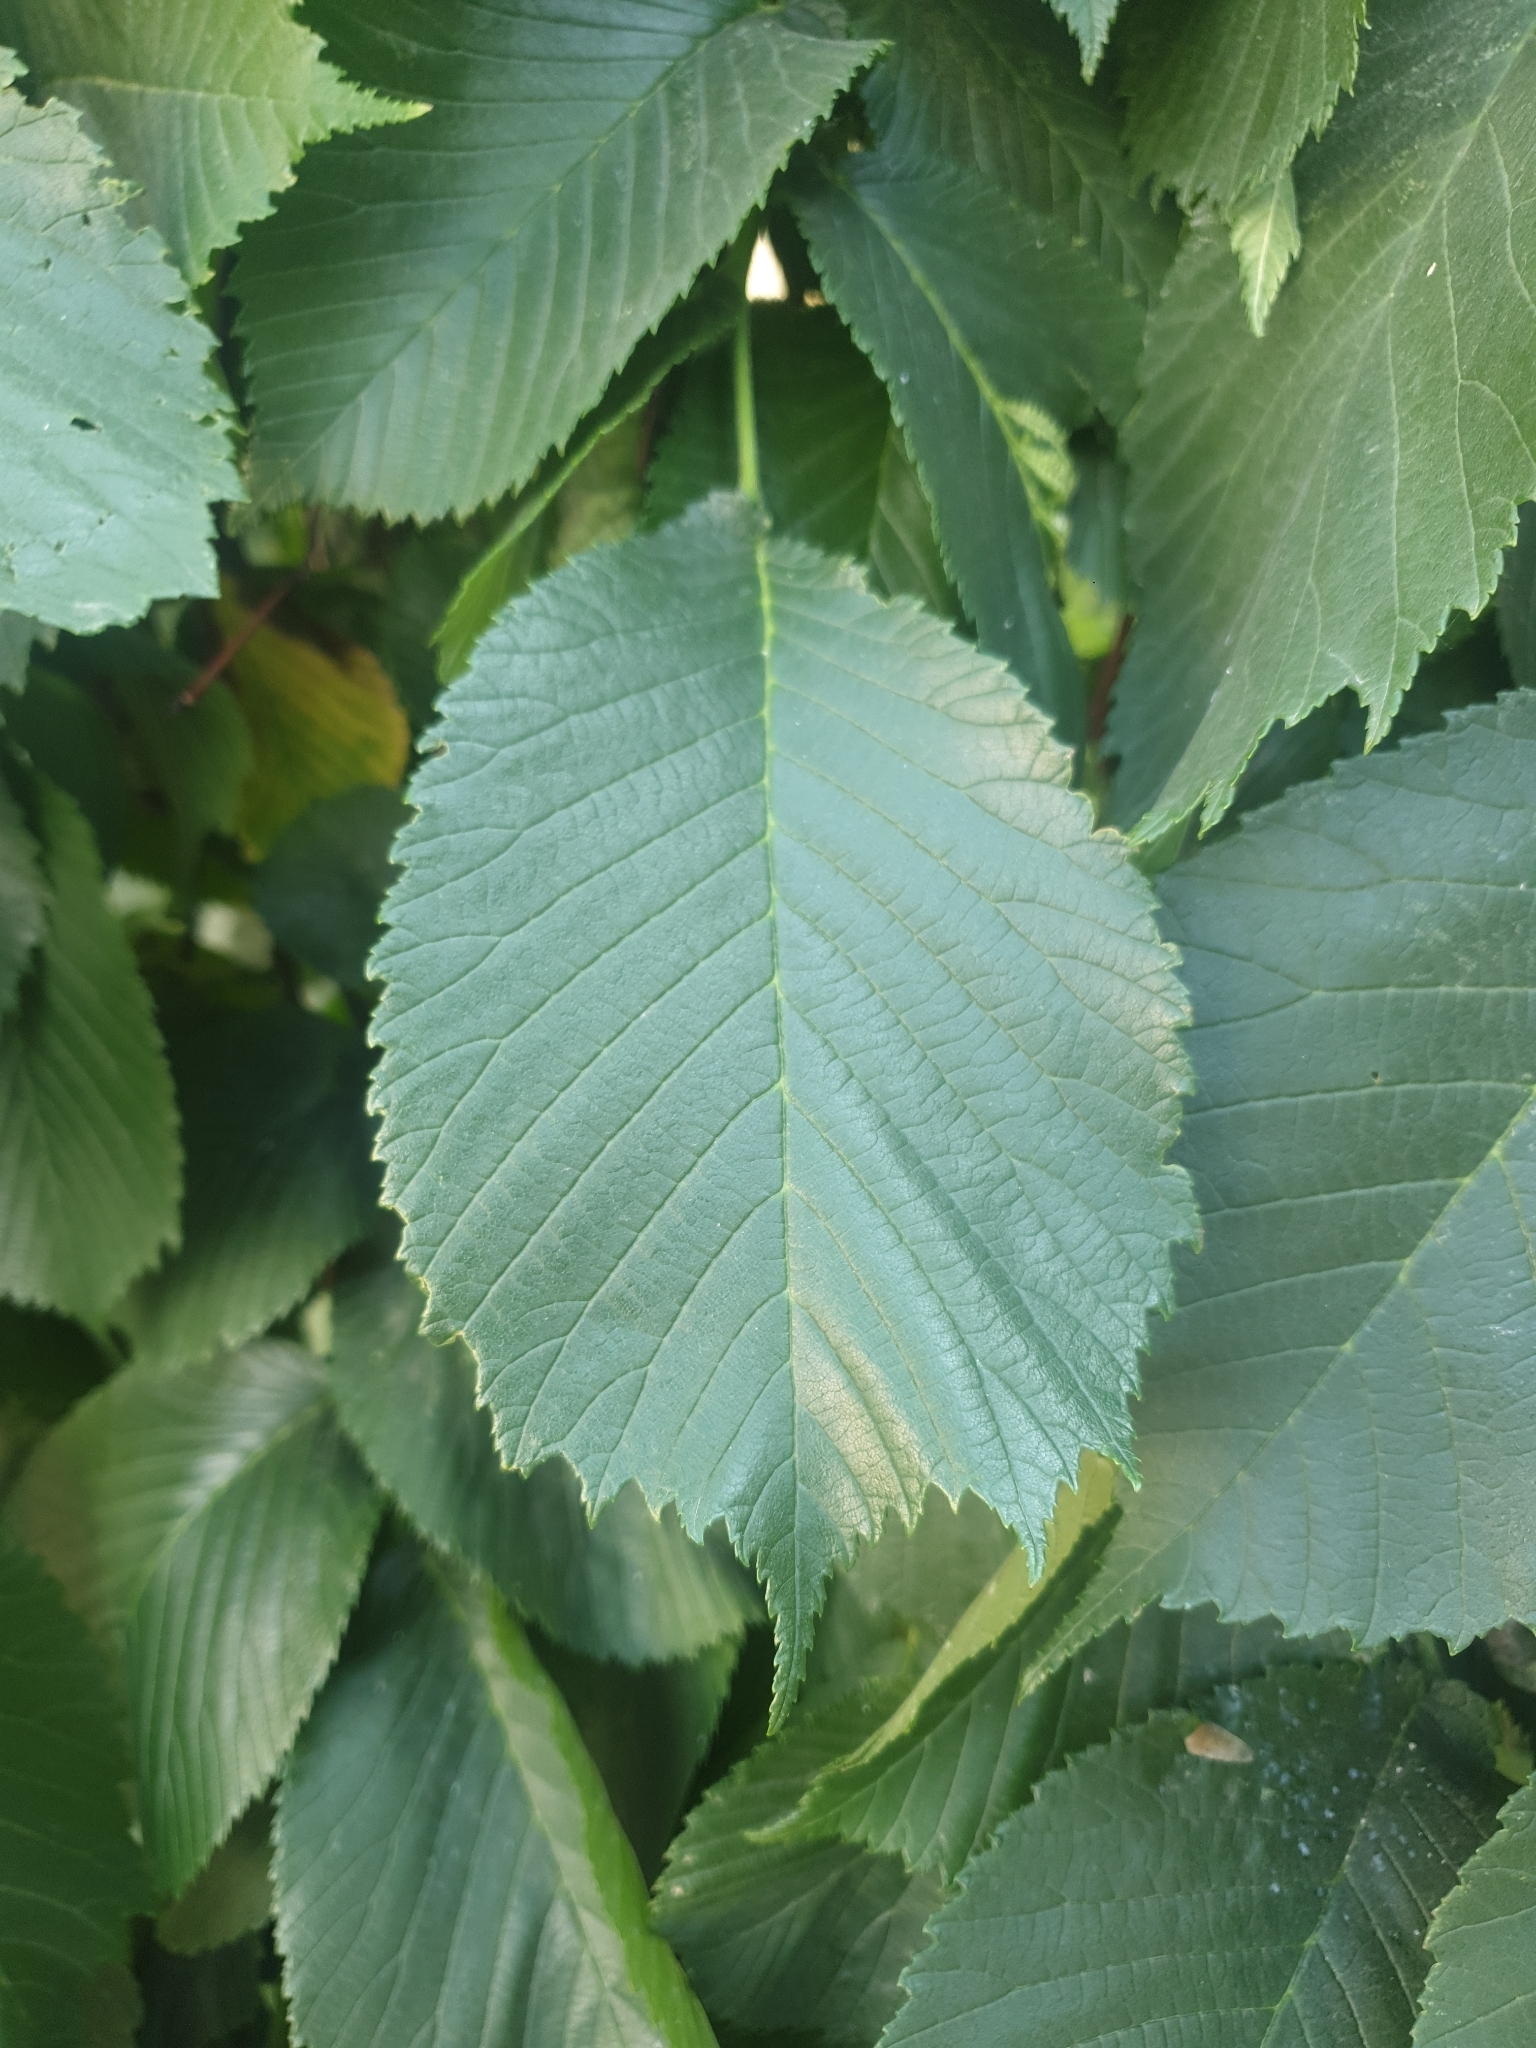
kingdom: Plantae
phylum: Tracheophyta
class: Magnoliopsida
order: Rosales
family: Ulmaceae
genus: Ulmus
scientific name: Ulmus glabra
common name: Wych elm
